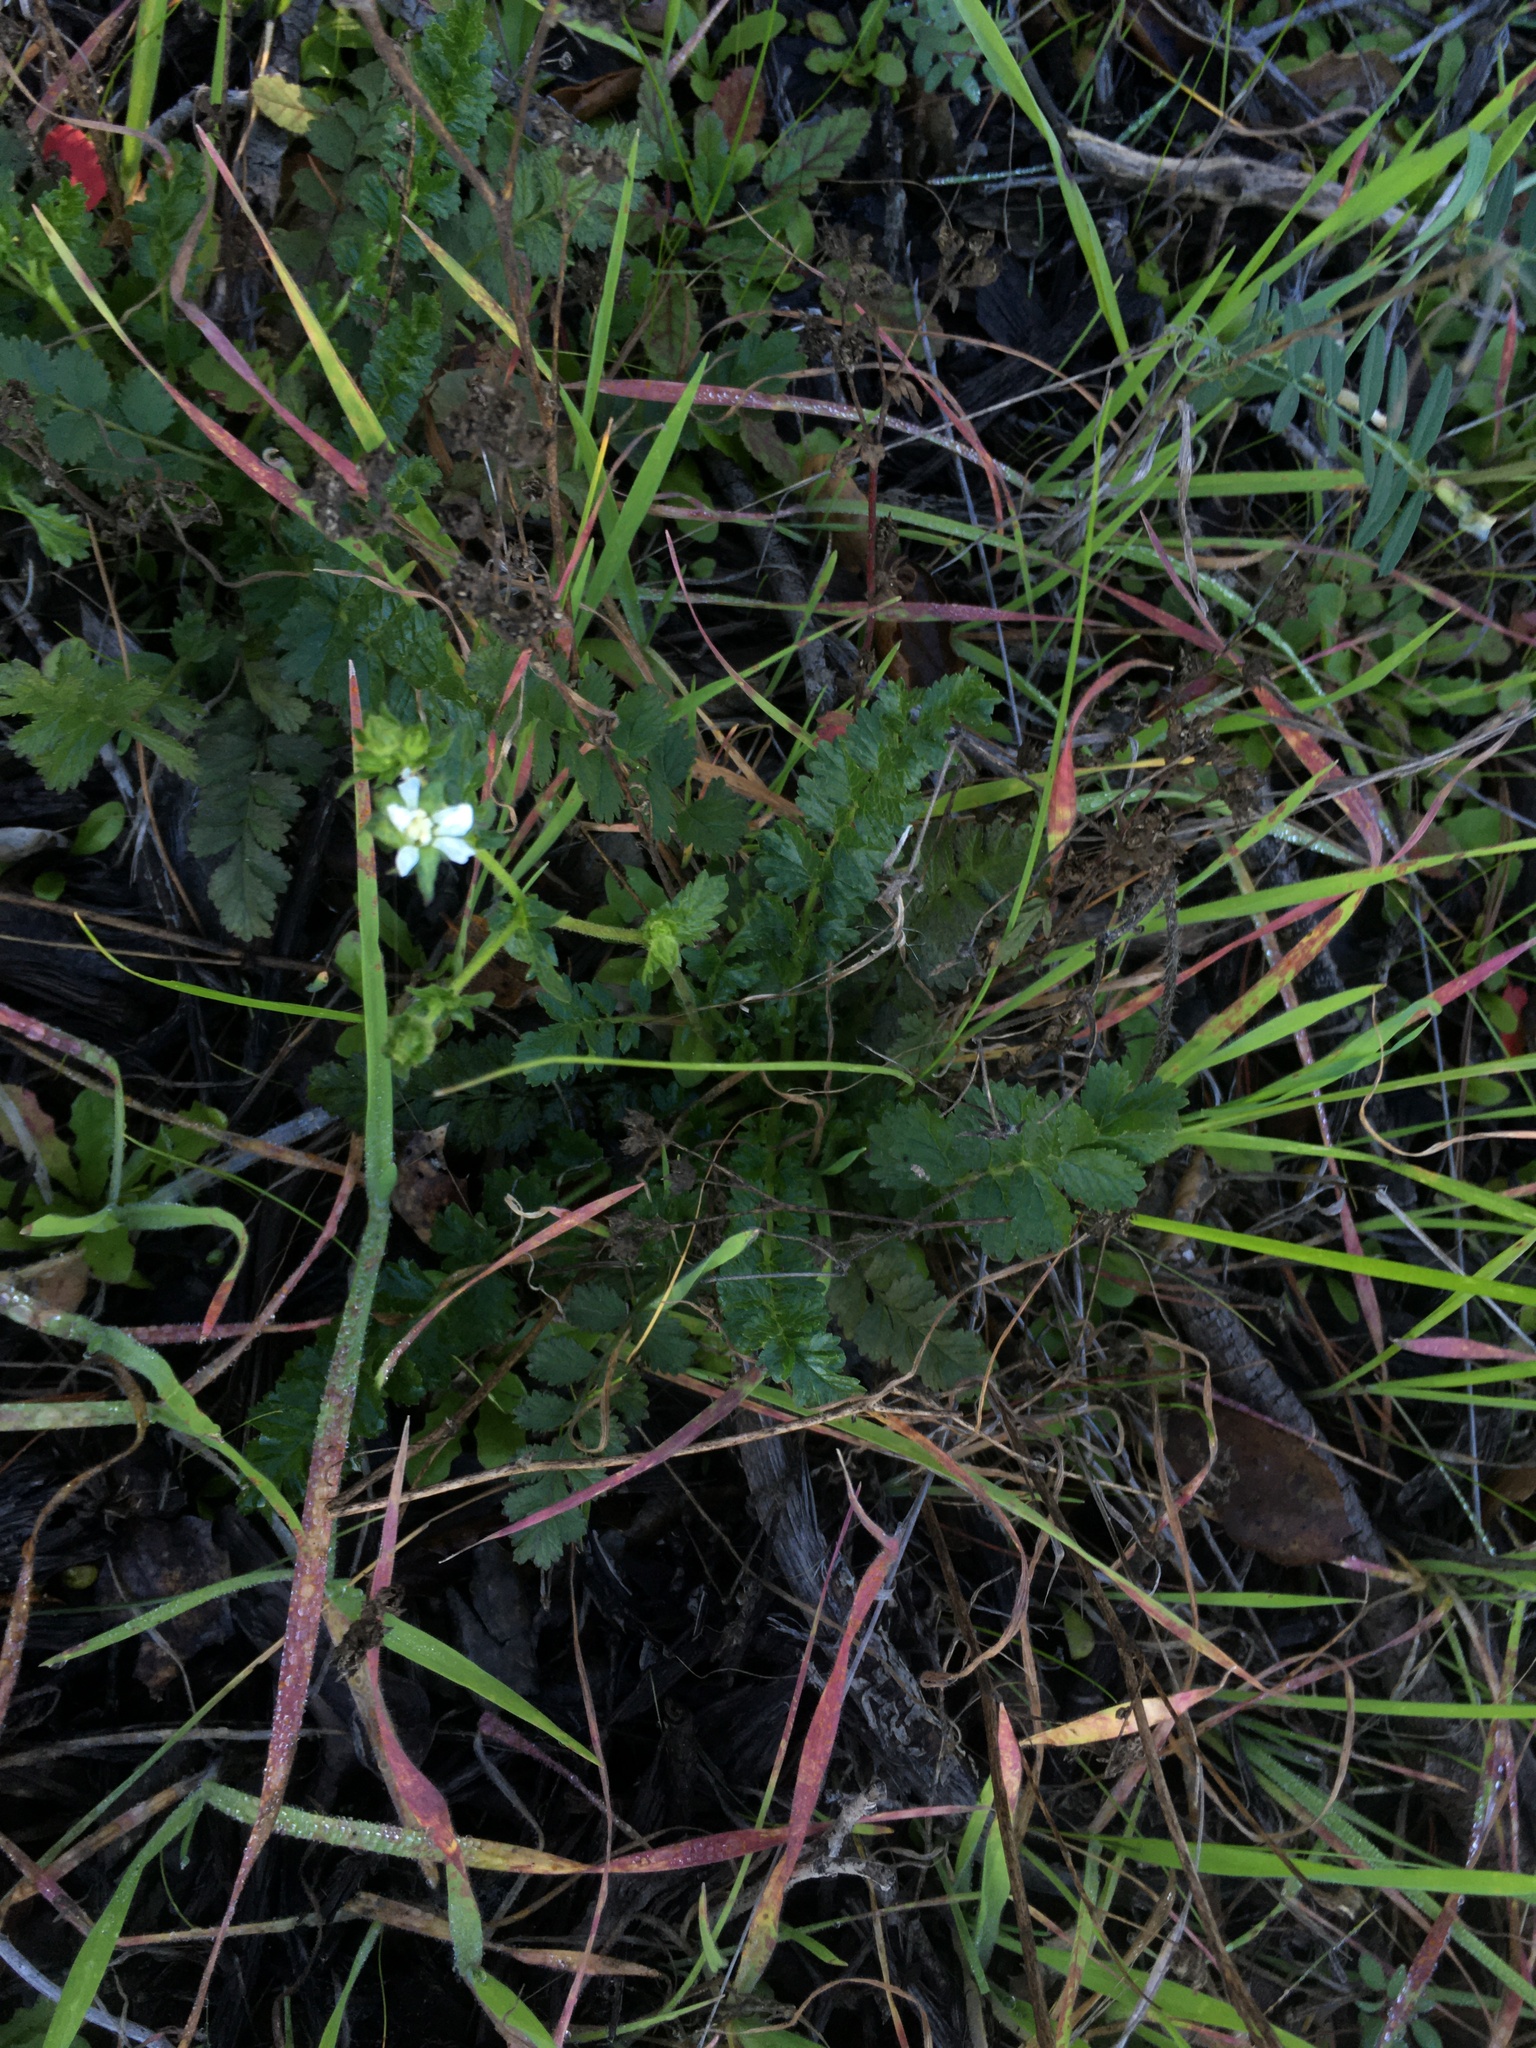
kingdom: Plantae
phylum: Tracheophyta
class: Magnoliopsida
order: Rosales
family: Rosaceae
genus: Potentilla
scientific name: Potentilla
